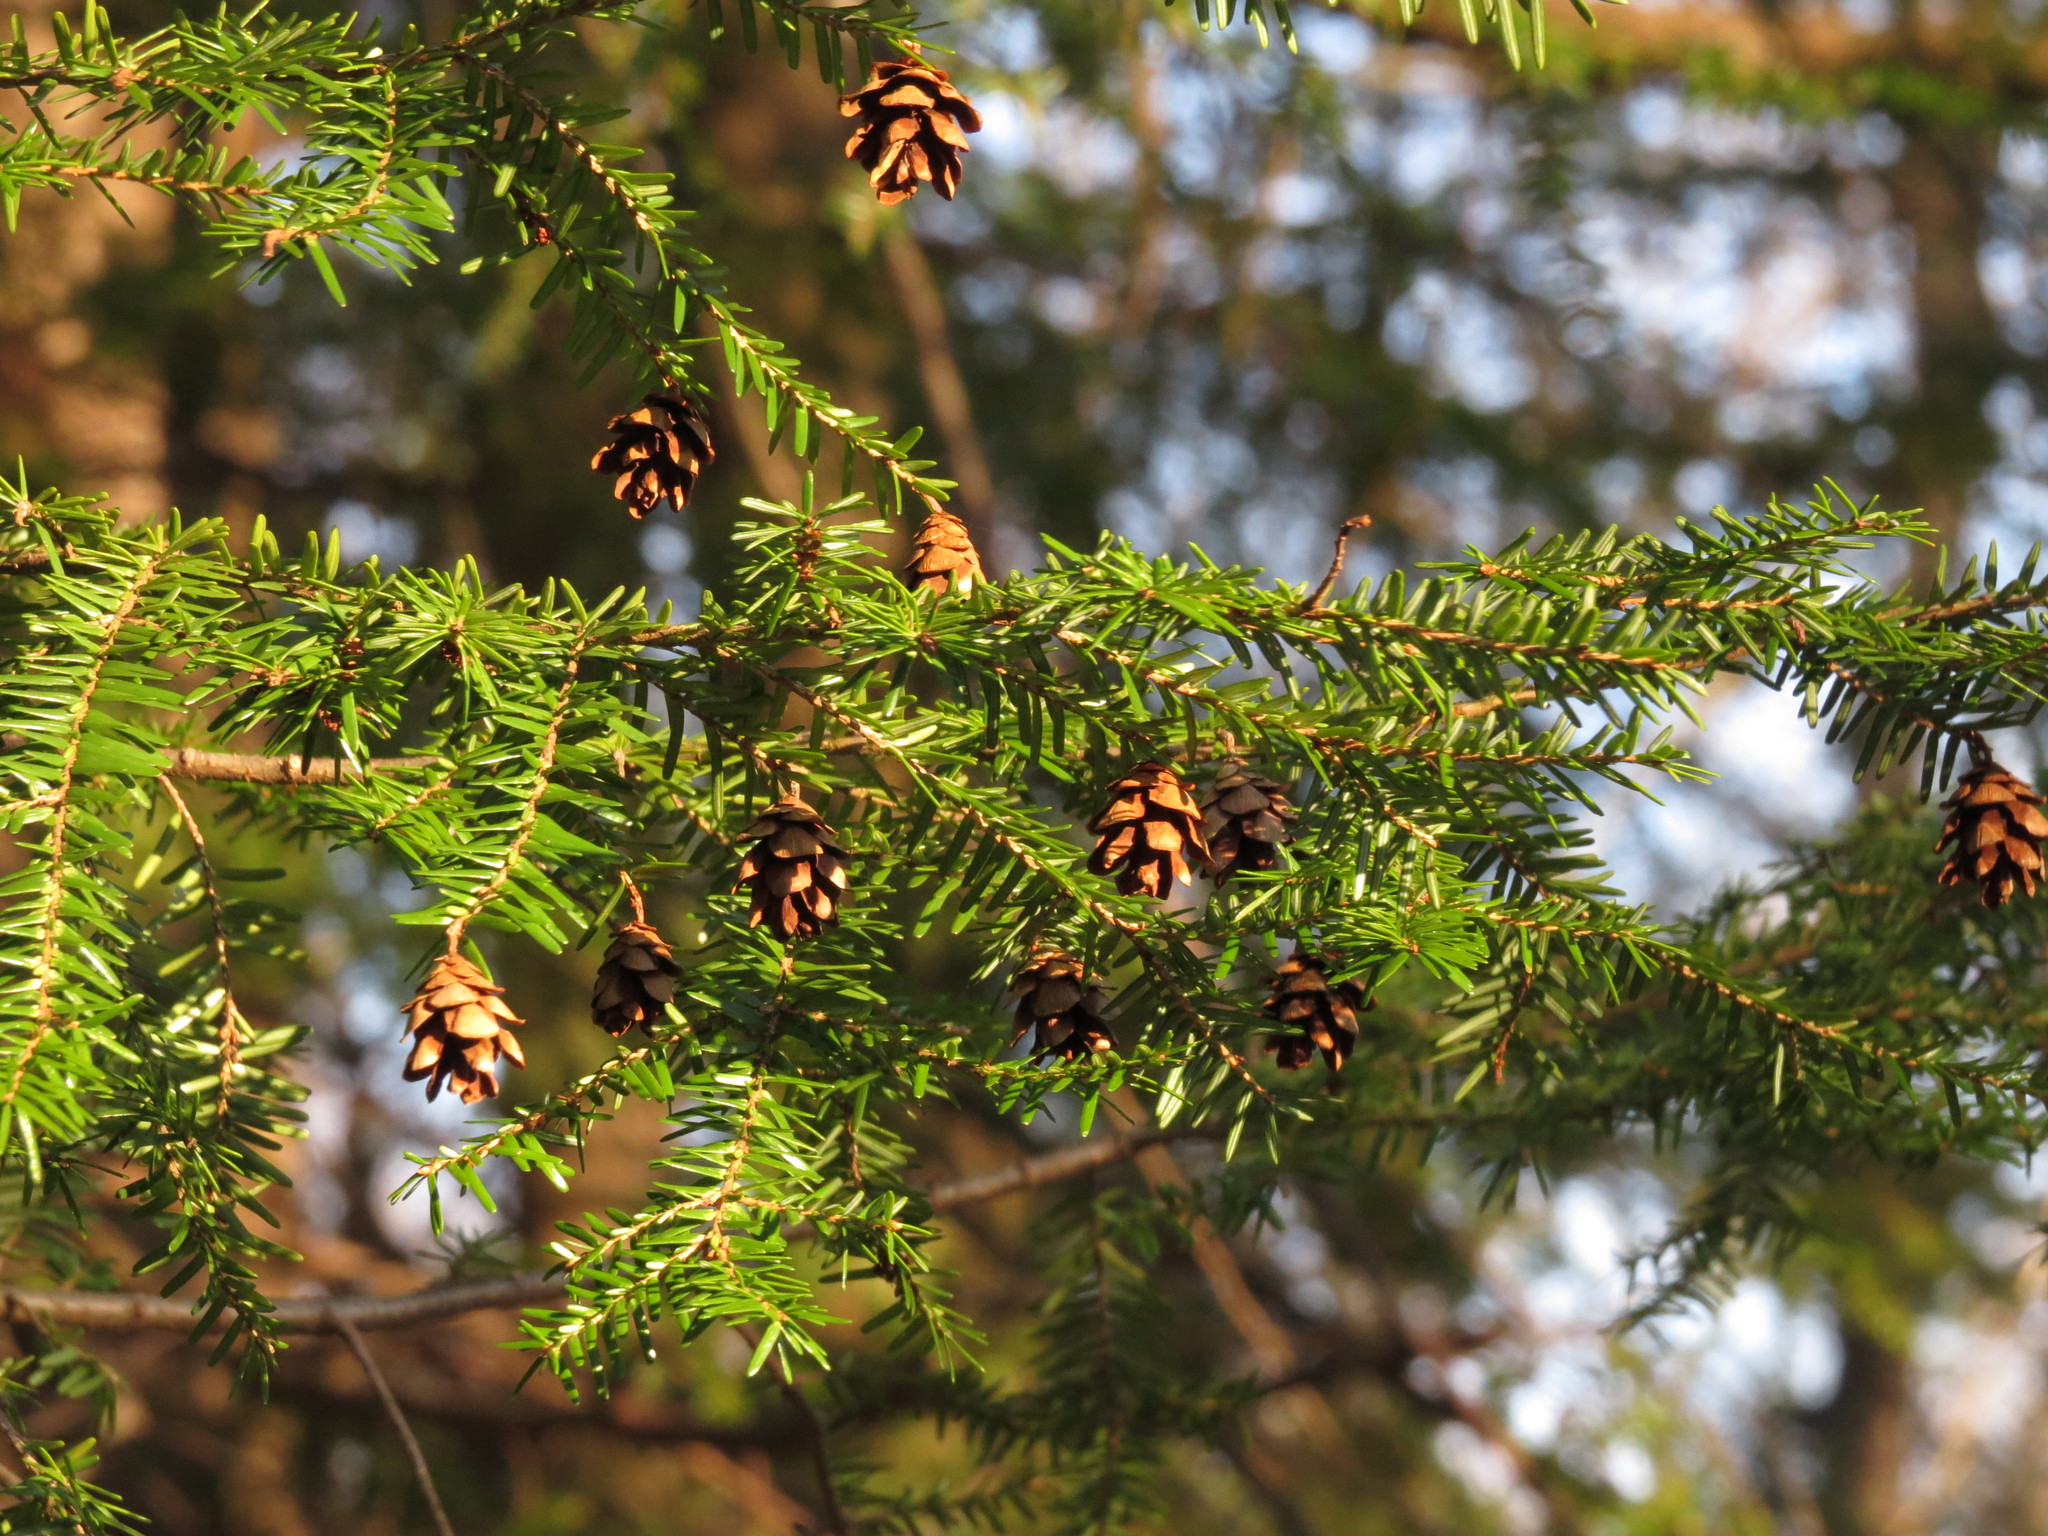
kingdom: Plantae
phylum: Tracheophyta
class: Pinopsida
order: Pinales
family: Pinaceae
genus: Tsuga
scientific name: Tsuga canadensis
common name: Eastern hemlock
